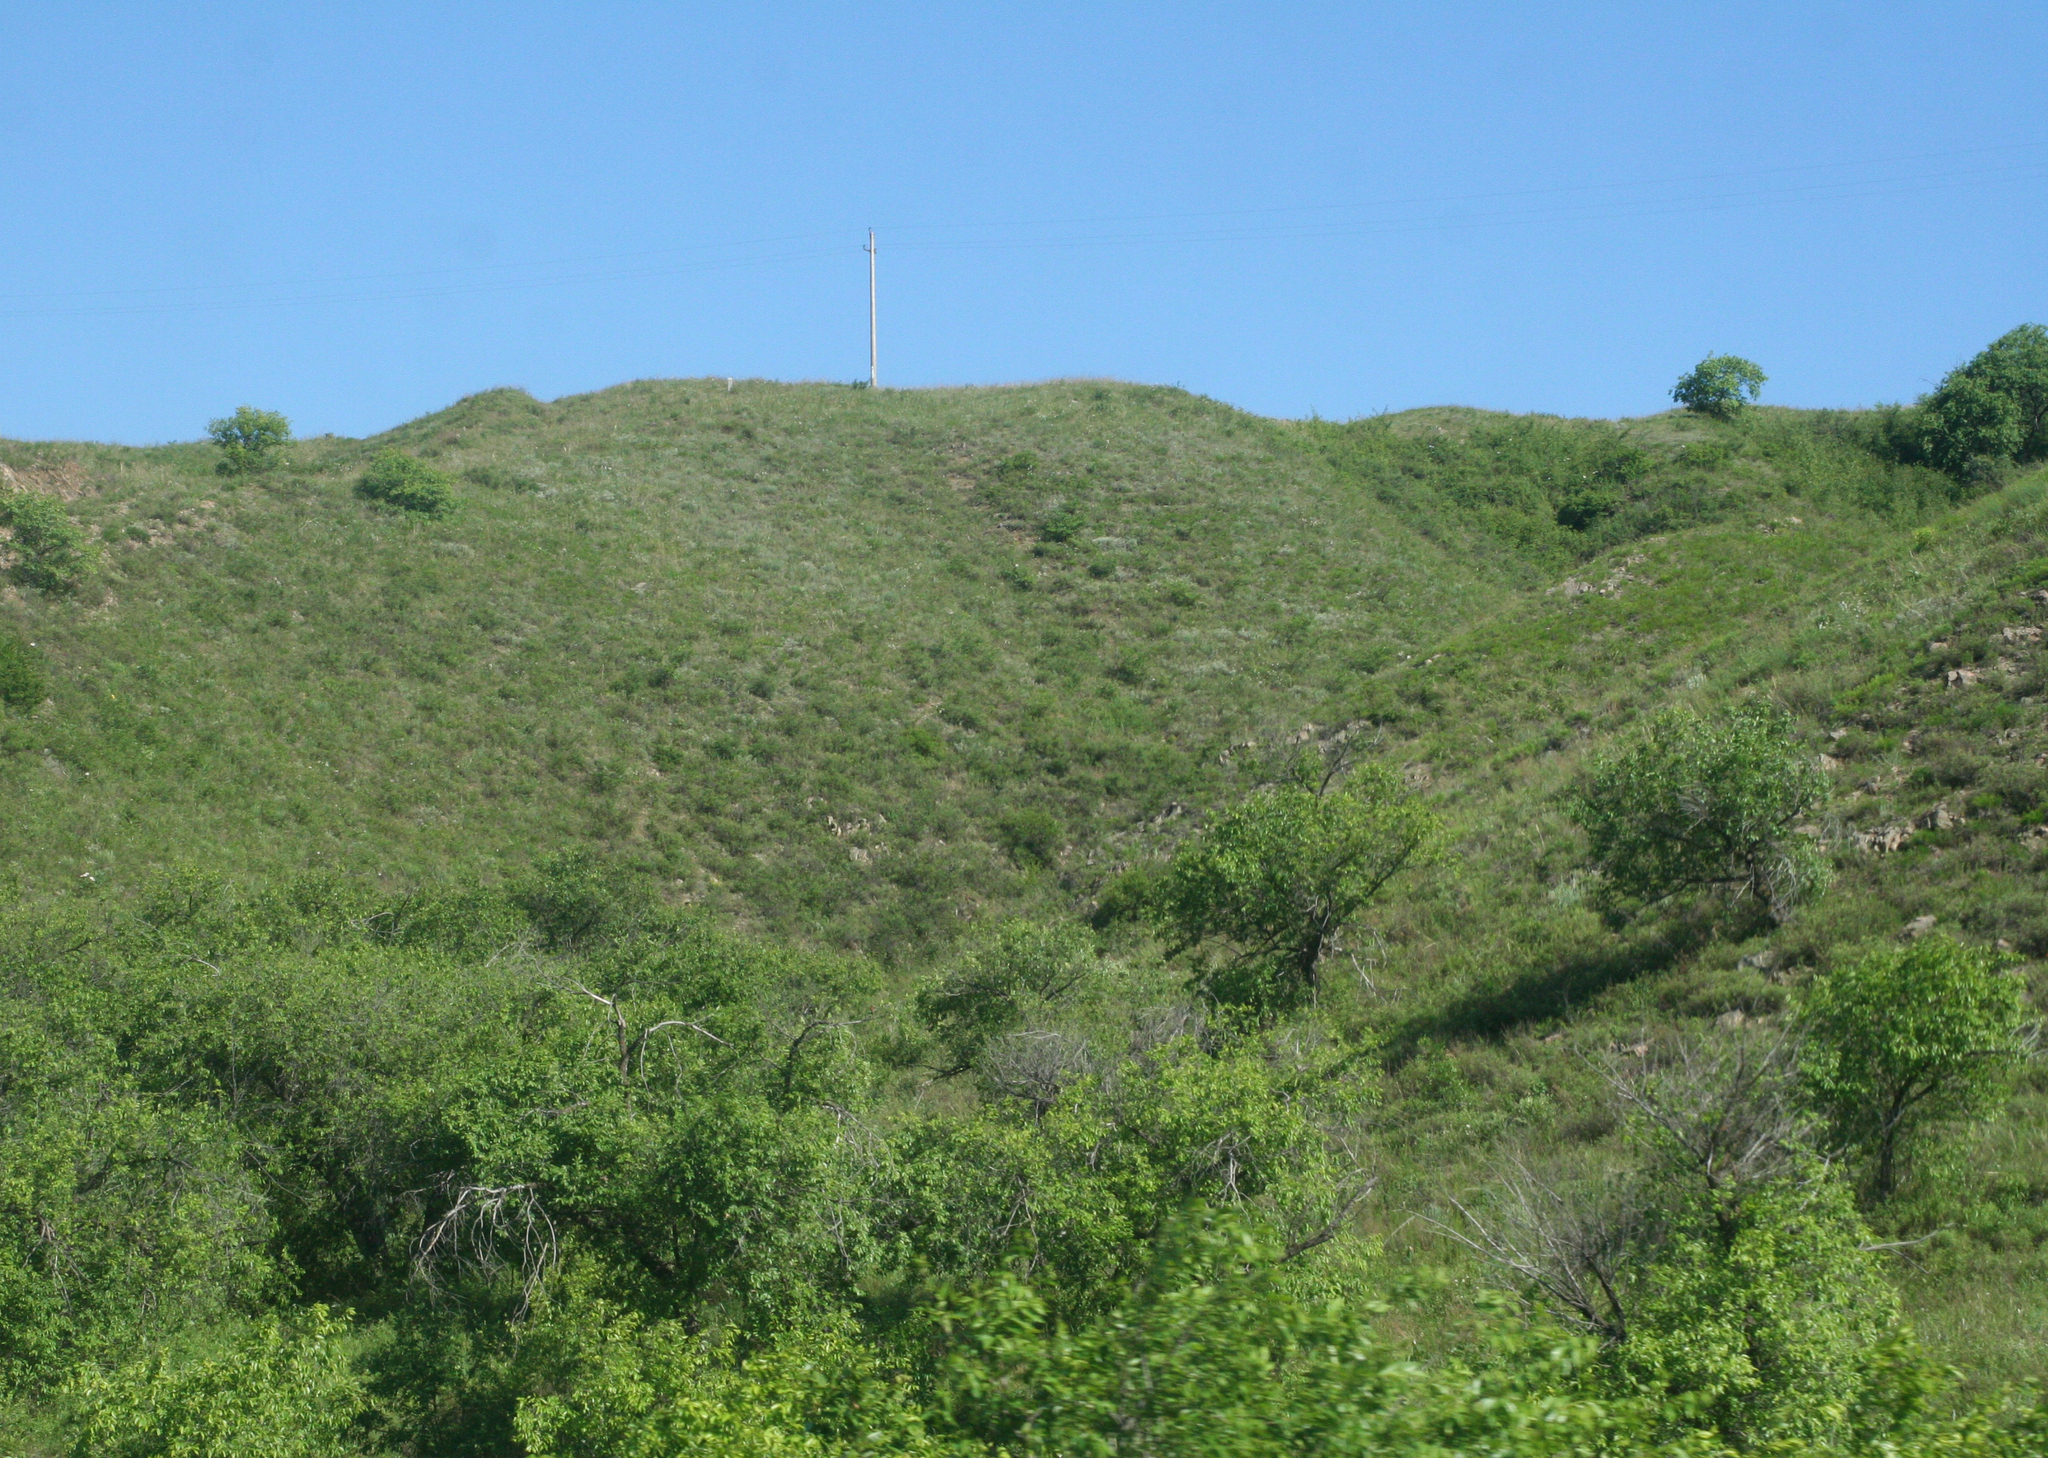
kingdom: Plantae
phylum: Tracheophyta
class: Magnoliopsida
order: Rosales
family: Ulmaceae
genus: Ulmus
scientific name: Ulmus pumila
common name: Siberian elm
